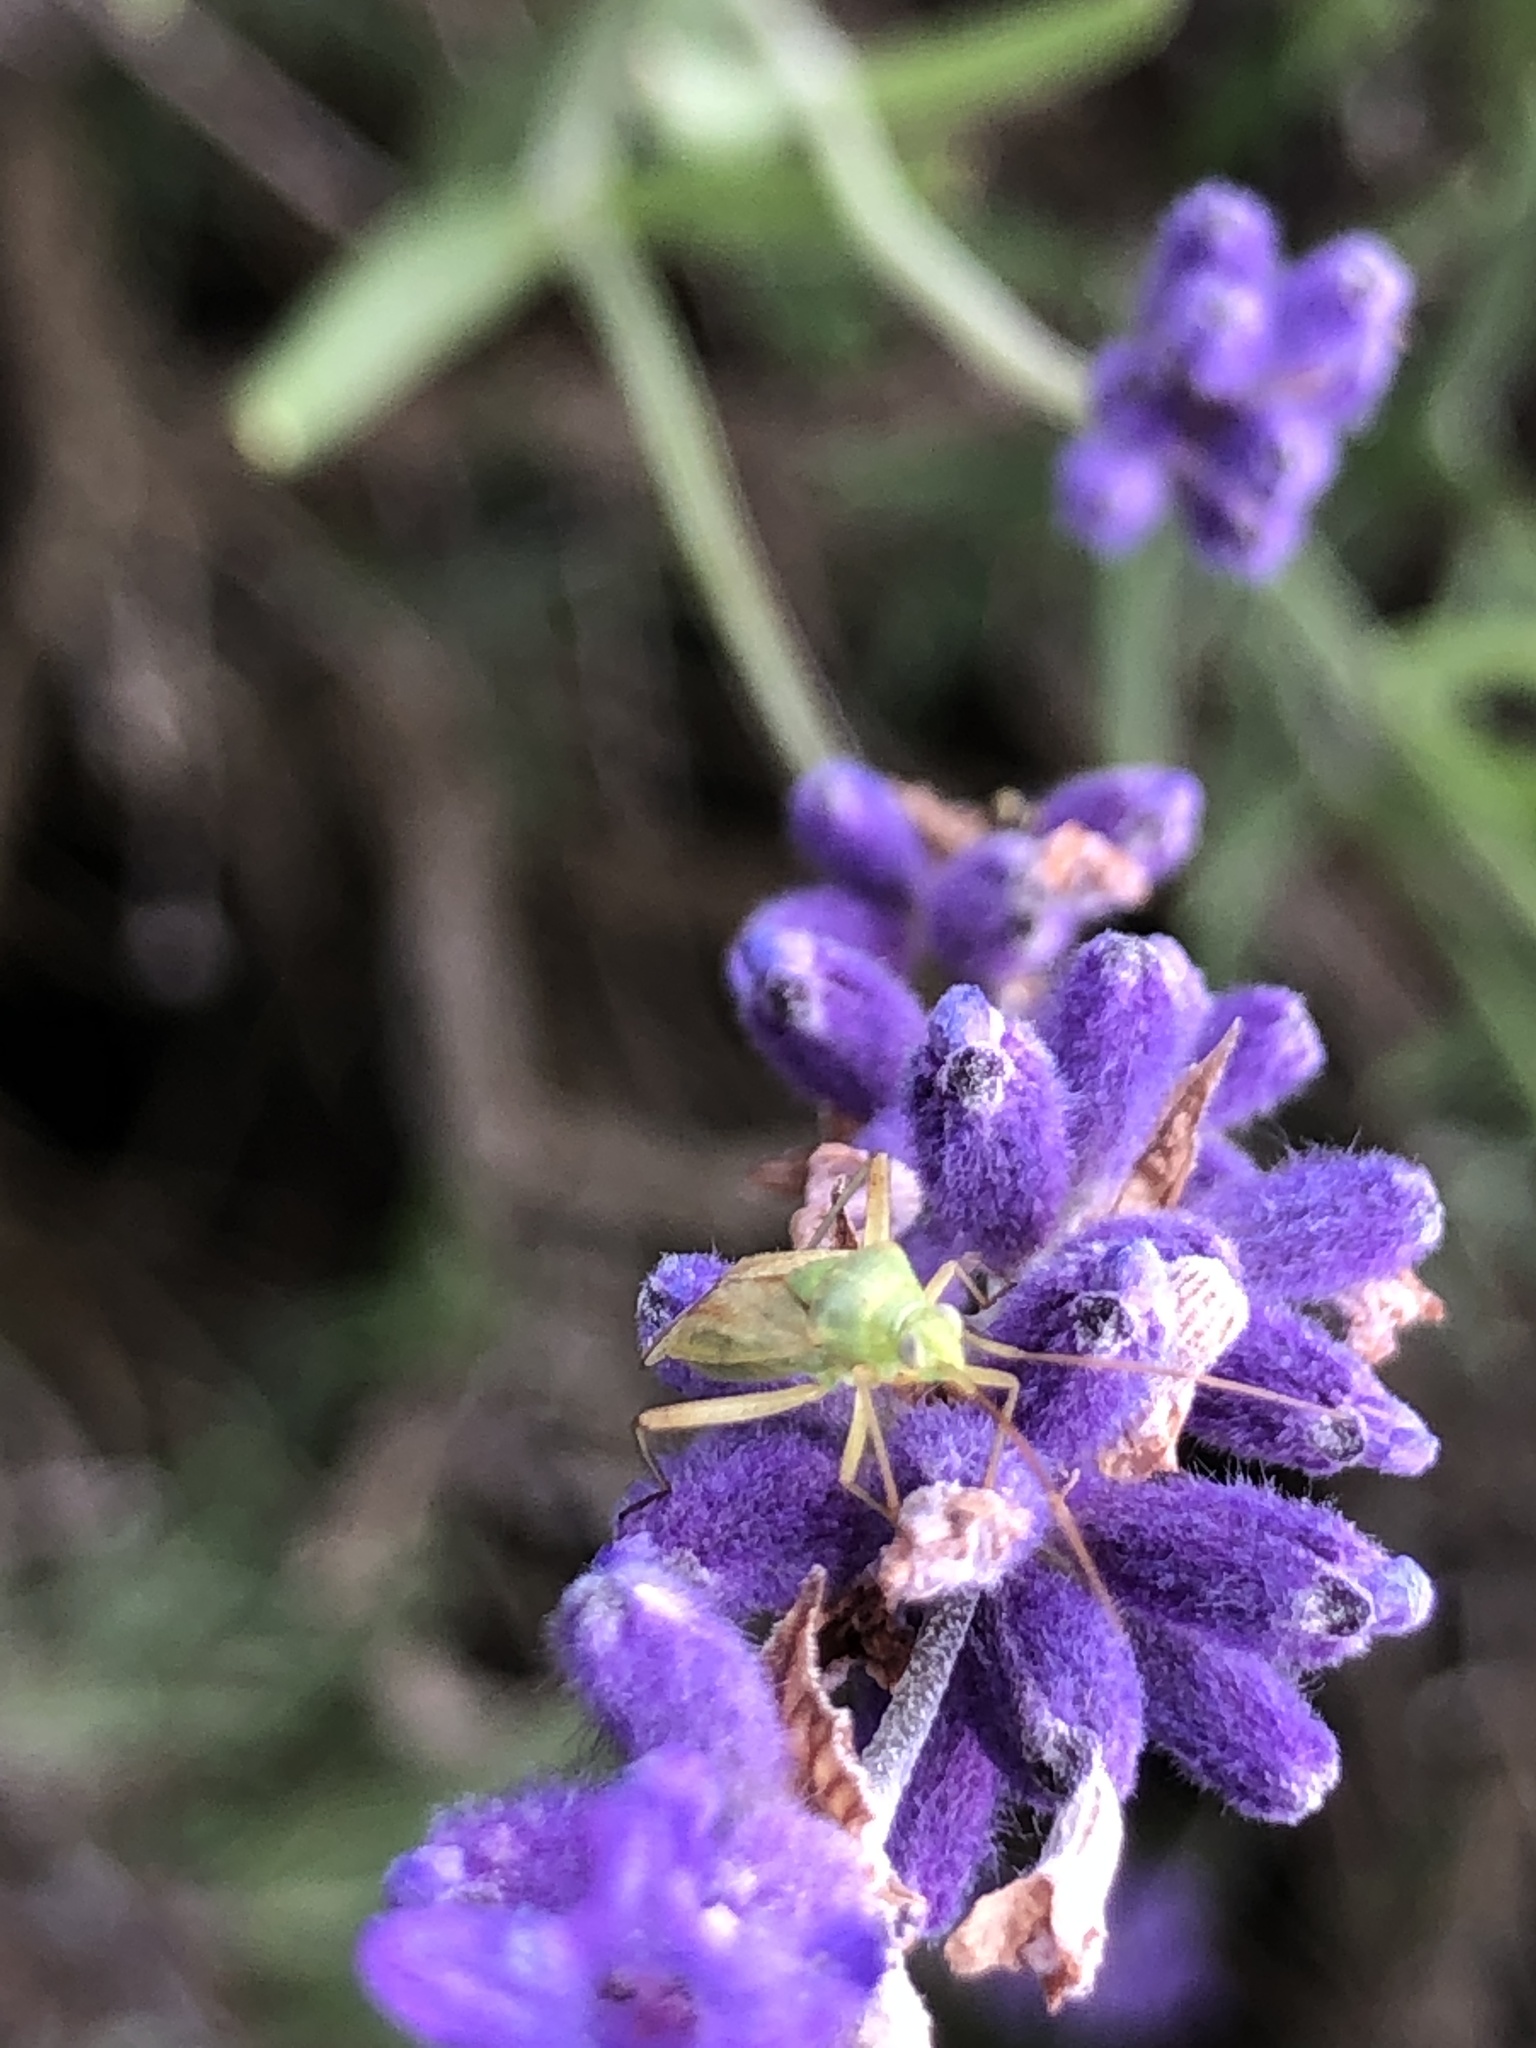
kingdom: Animalia
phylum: Arthropoda
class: Insecta
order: Hemiptera
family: Miridae
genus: Closterotomus
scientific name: Closterotomus norvegicus
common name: Plant bug
